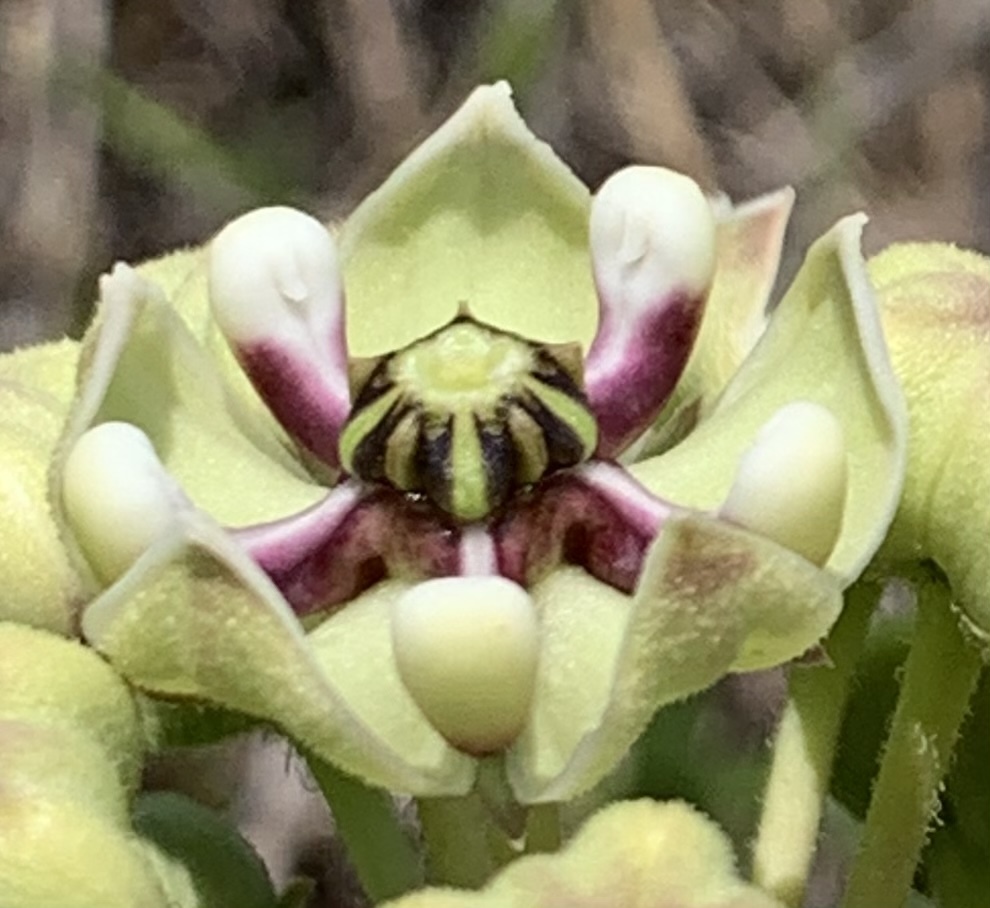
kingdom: Plantae
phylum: Tracheophyta
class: Magnoliopsida
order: Gentianales
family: Apocynaceae
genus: Asclepias
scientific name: Asclepias asperula
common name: Antelope horns
